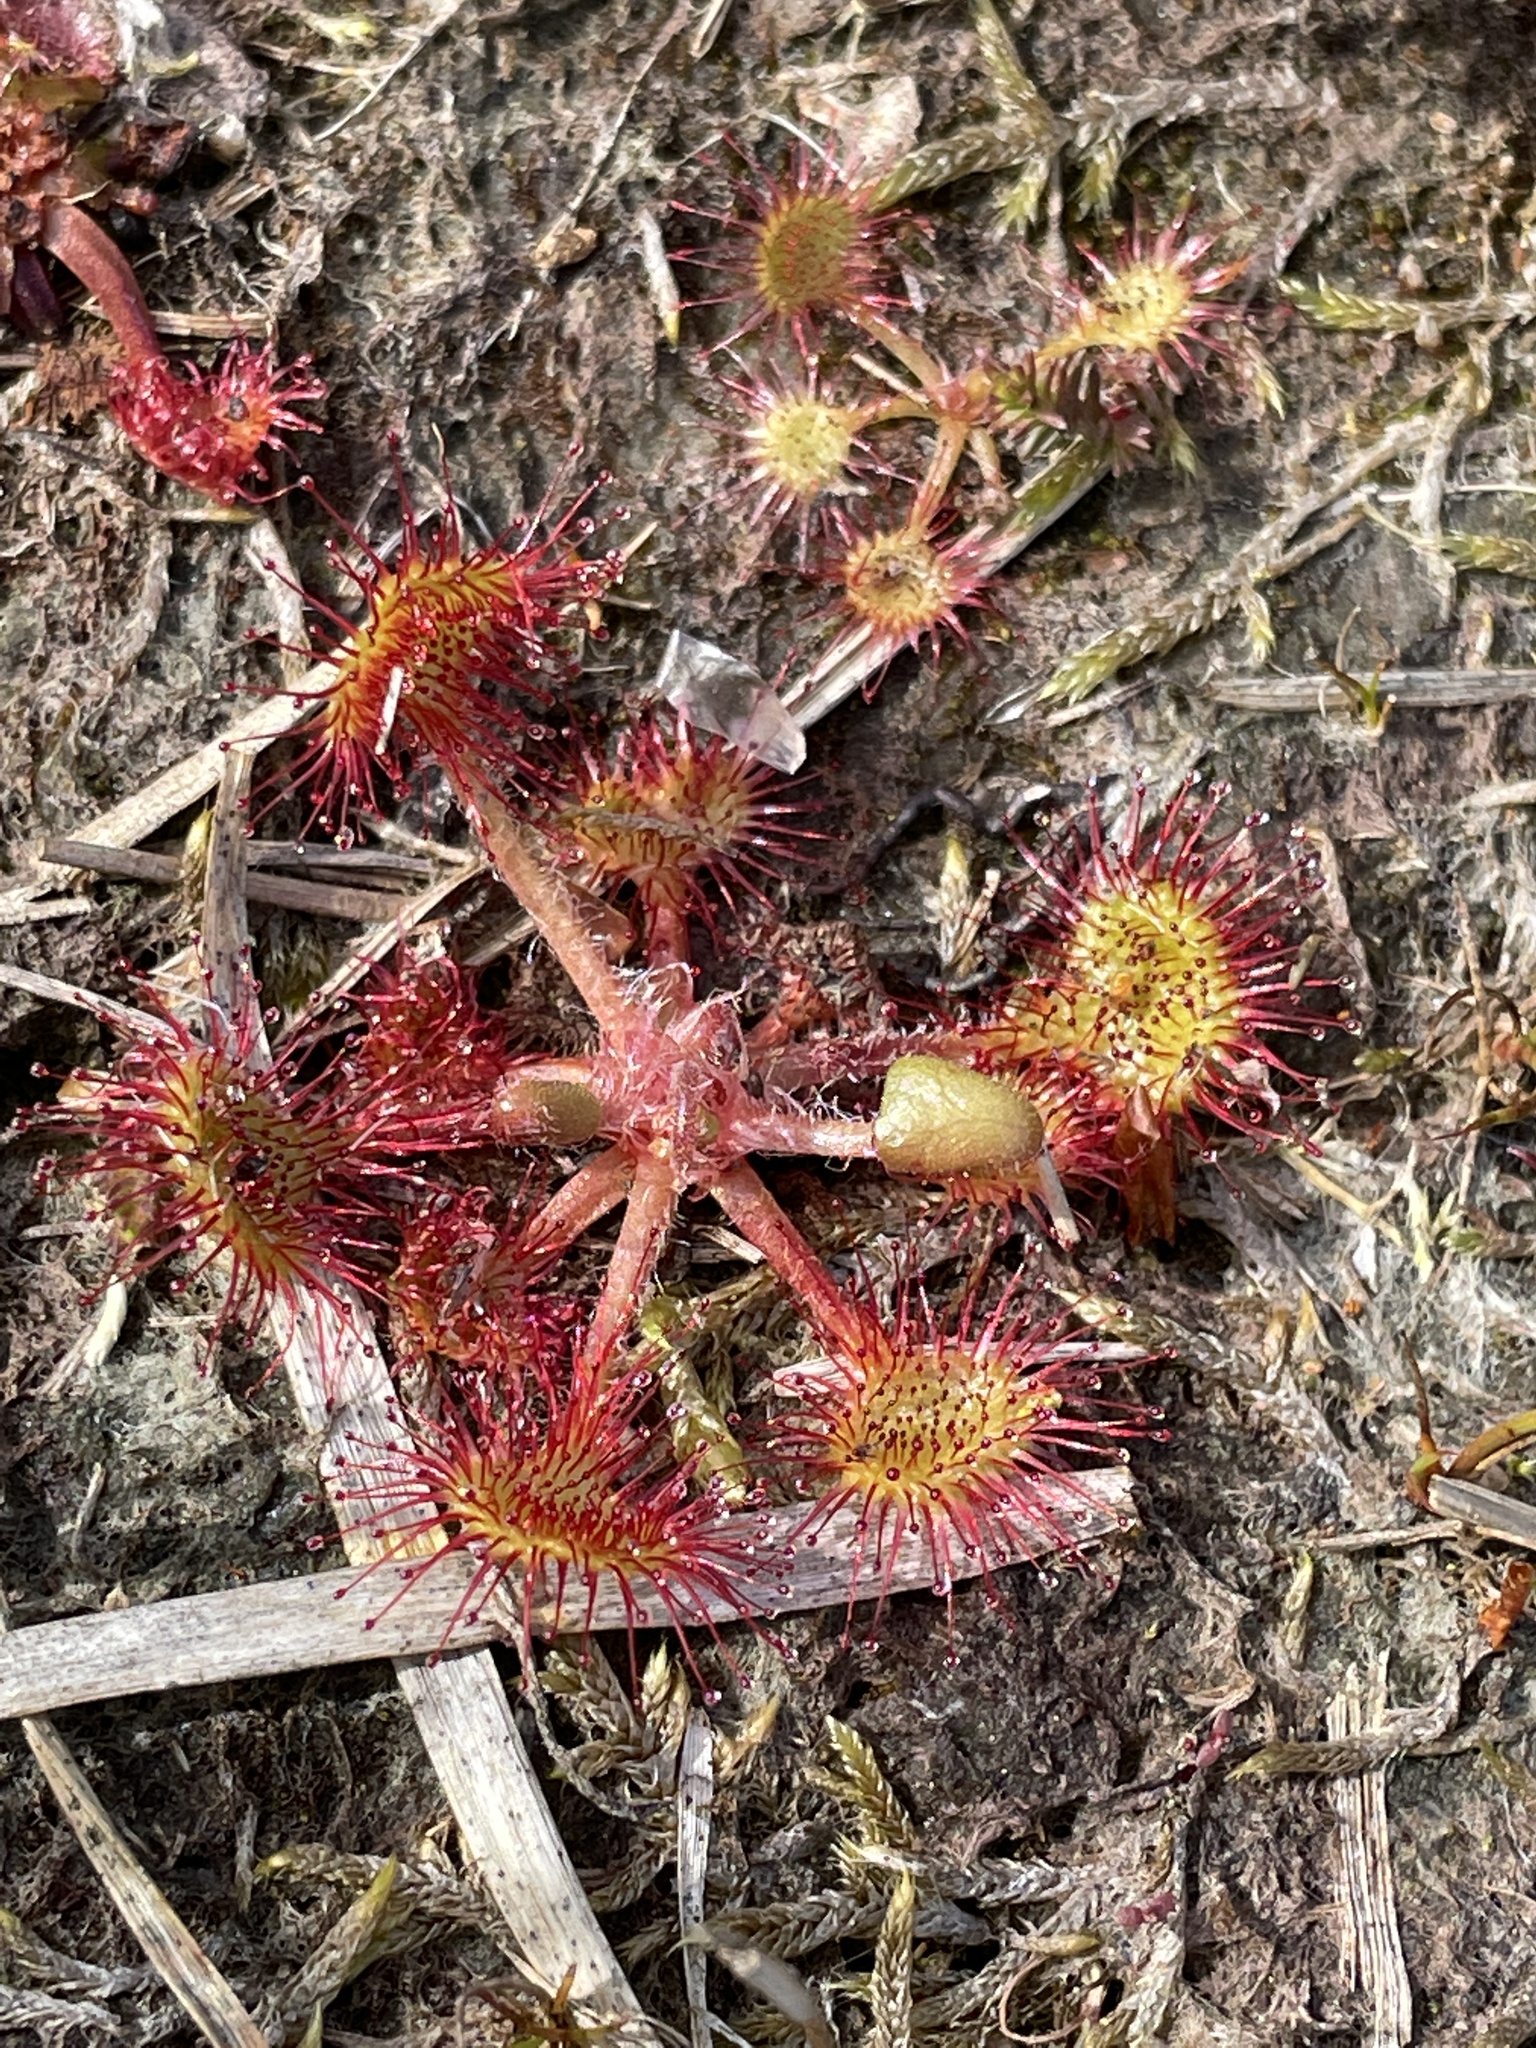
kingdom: Plantae
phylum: Tracheophyta
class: Magnoliopsida
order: Caryophyllales
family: Droseraceae
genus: Drosera
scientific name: Drosera rotundifolia
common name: Round-leaved sundew
